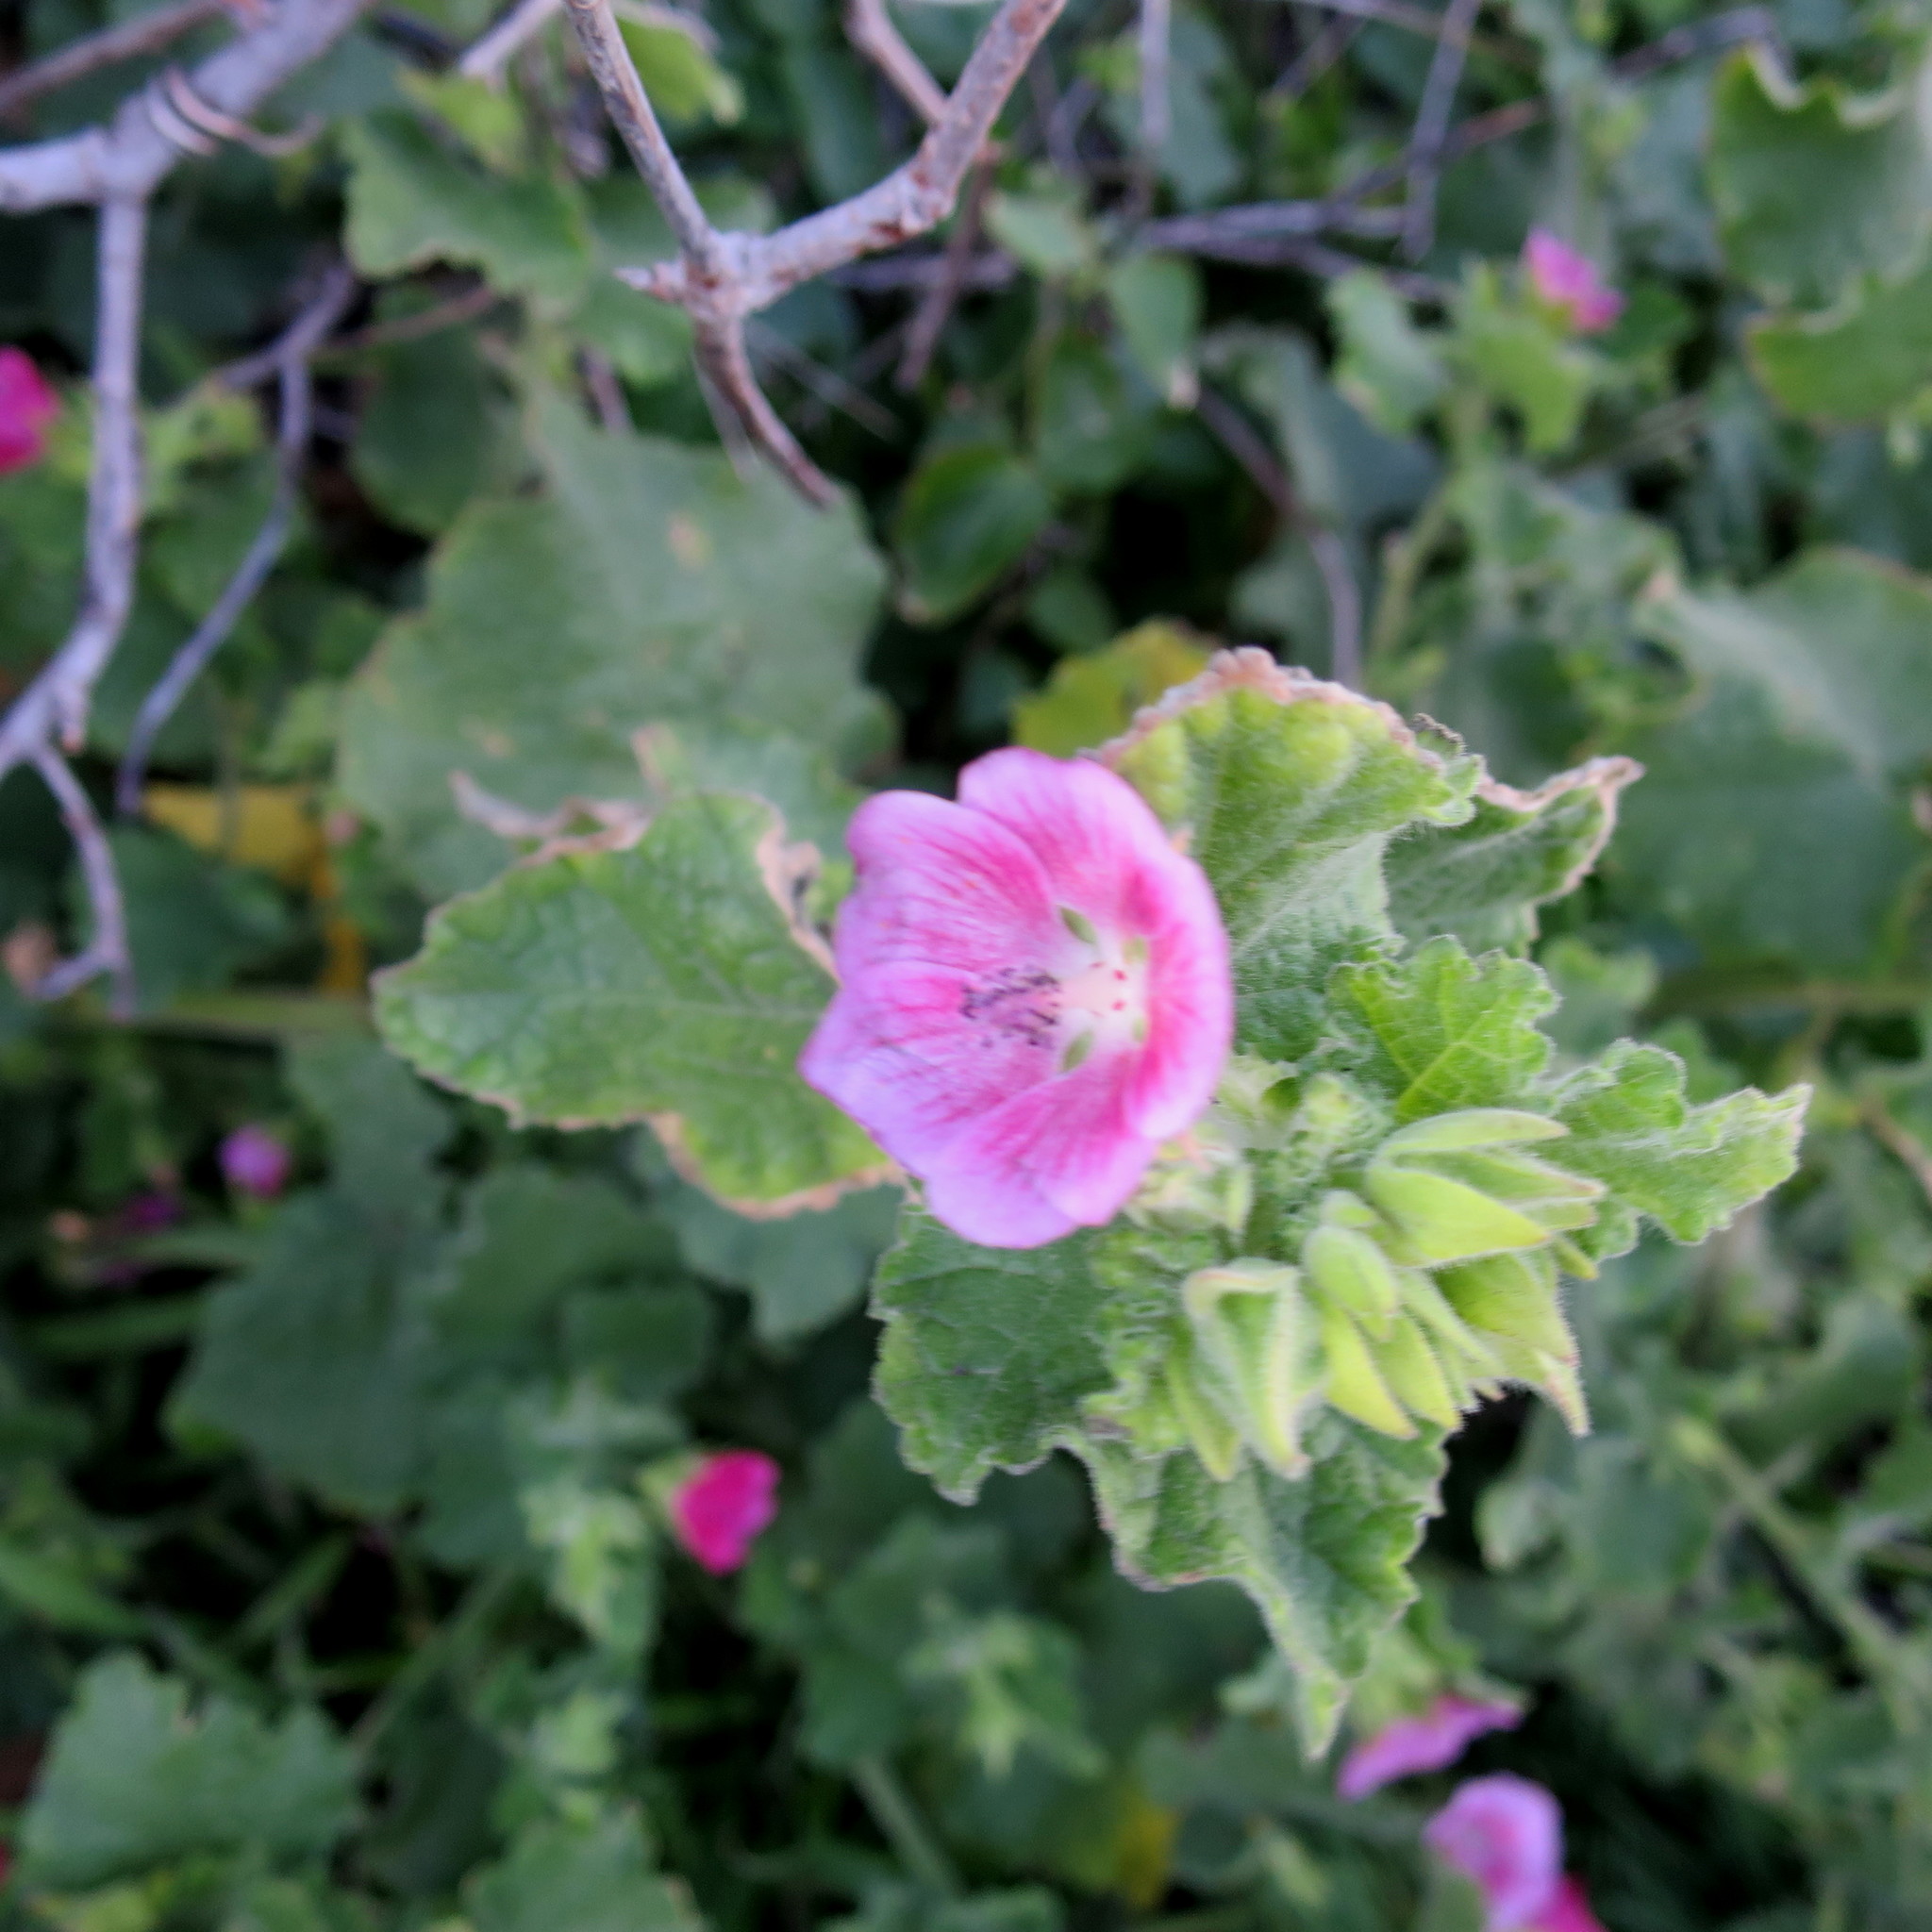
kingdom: Plantae
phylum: Tracheophyta
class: Magnoliopsida
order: Malvales
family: Malvaceae
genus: Anisodontea
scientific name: Anisodontea scabrosa
